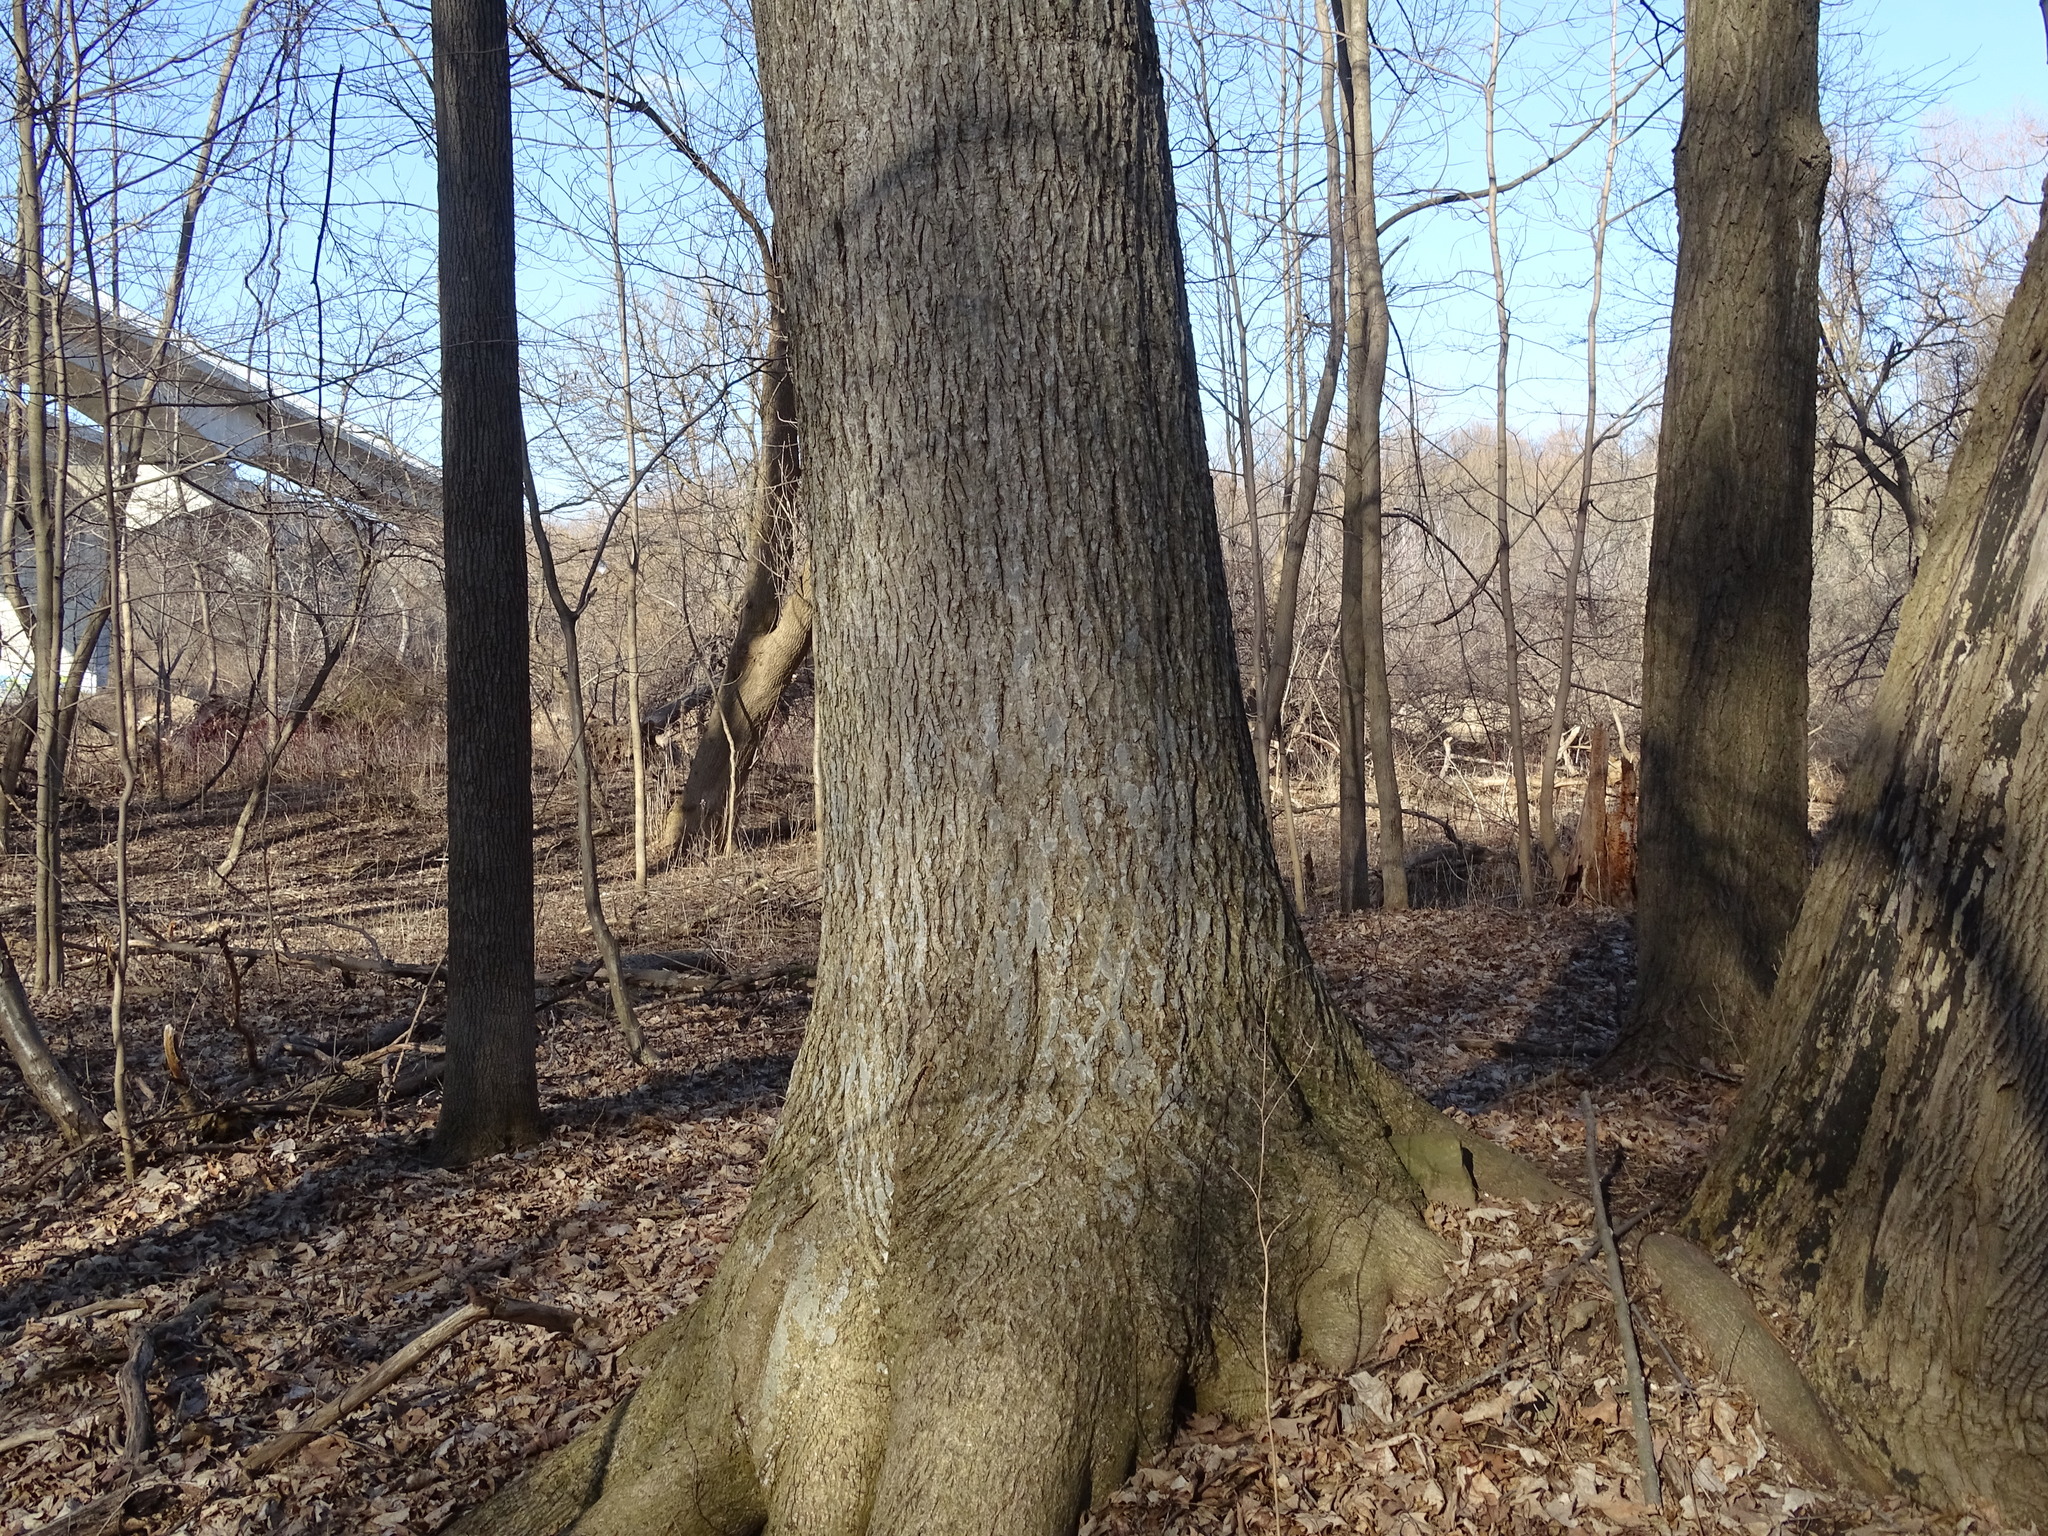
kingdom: Plantae
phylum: Tracheophyta
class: Magnoliopsida
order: Fagales
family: Juglandaceae
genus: Carya
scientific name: Carya cordiformis
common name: Bitternut hickory
